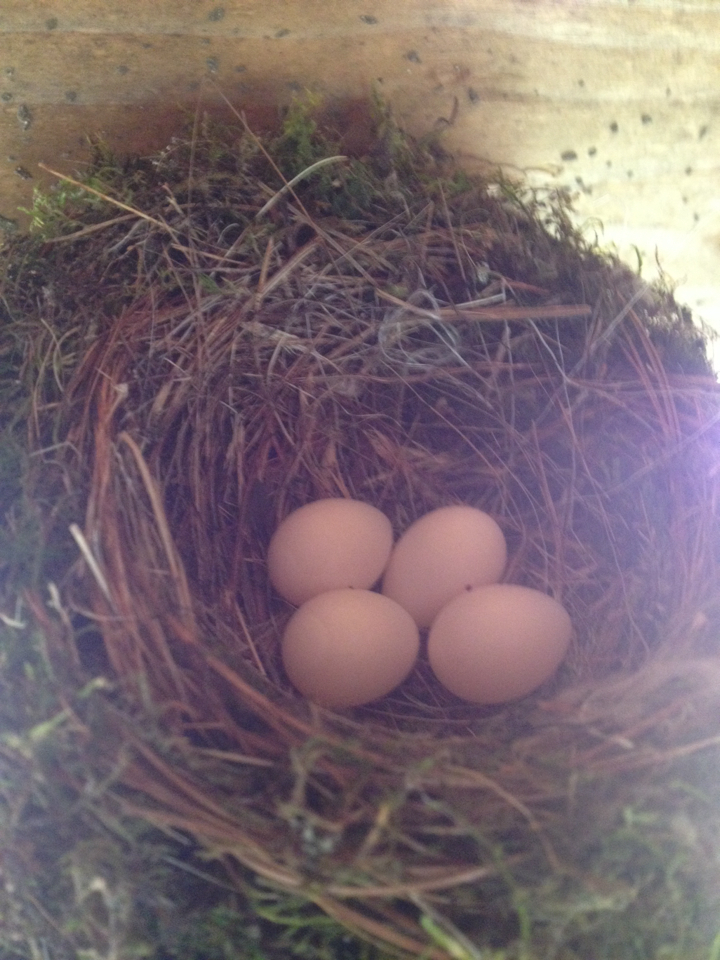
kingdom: Animalia
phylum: Chordata
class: Aves
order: Passeriformes
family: Tyrannidae
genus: Sayornis
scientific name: Sayornis phoebe
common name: Eastern phoebe
